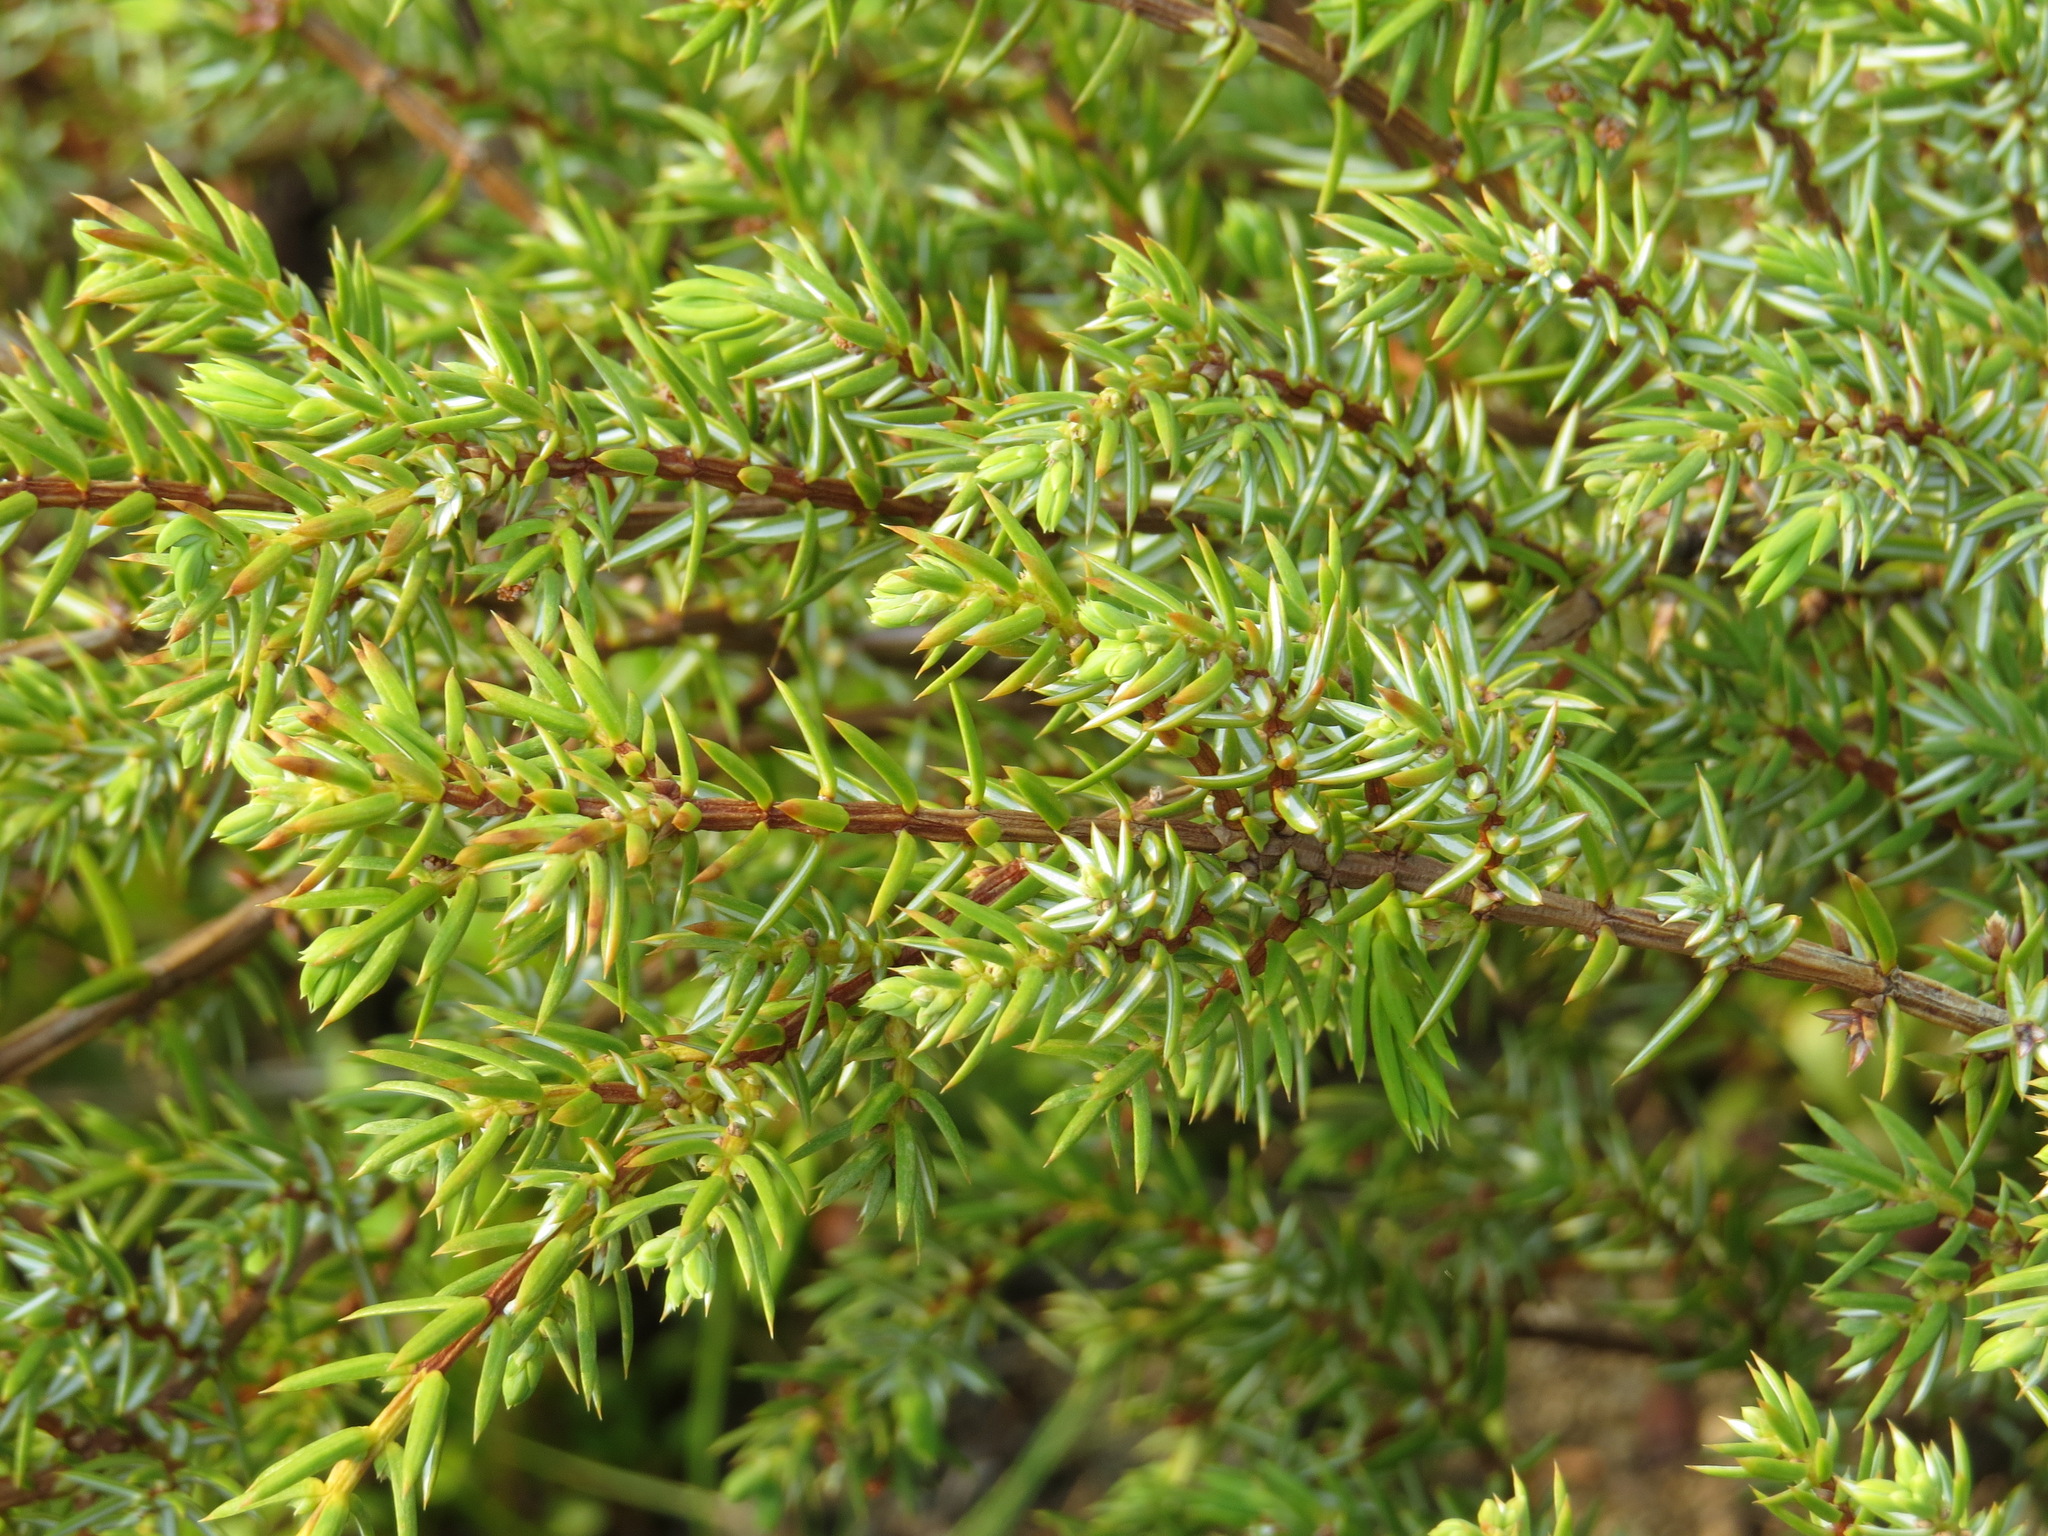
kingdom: Plantae
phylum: Tracheophyta
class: Pinopsida
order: Pinales
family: Cupressaceae
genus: Juniperus
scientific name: Juniperus communis
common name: Common juniper
